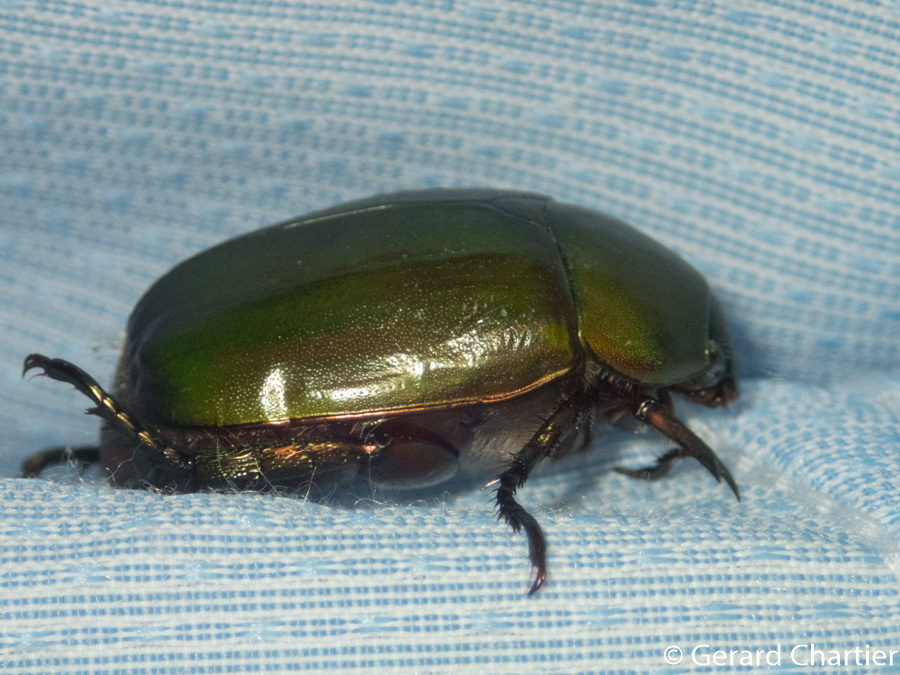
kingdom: Animalia
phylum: Arthropoda
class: Insecta
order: Coleoptera
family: Scarabaeidae
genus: Anomala
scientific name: Anomala cupripes
